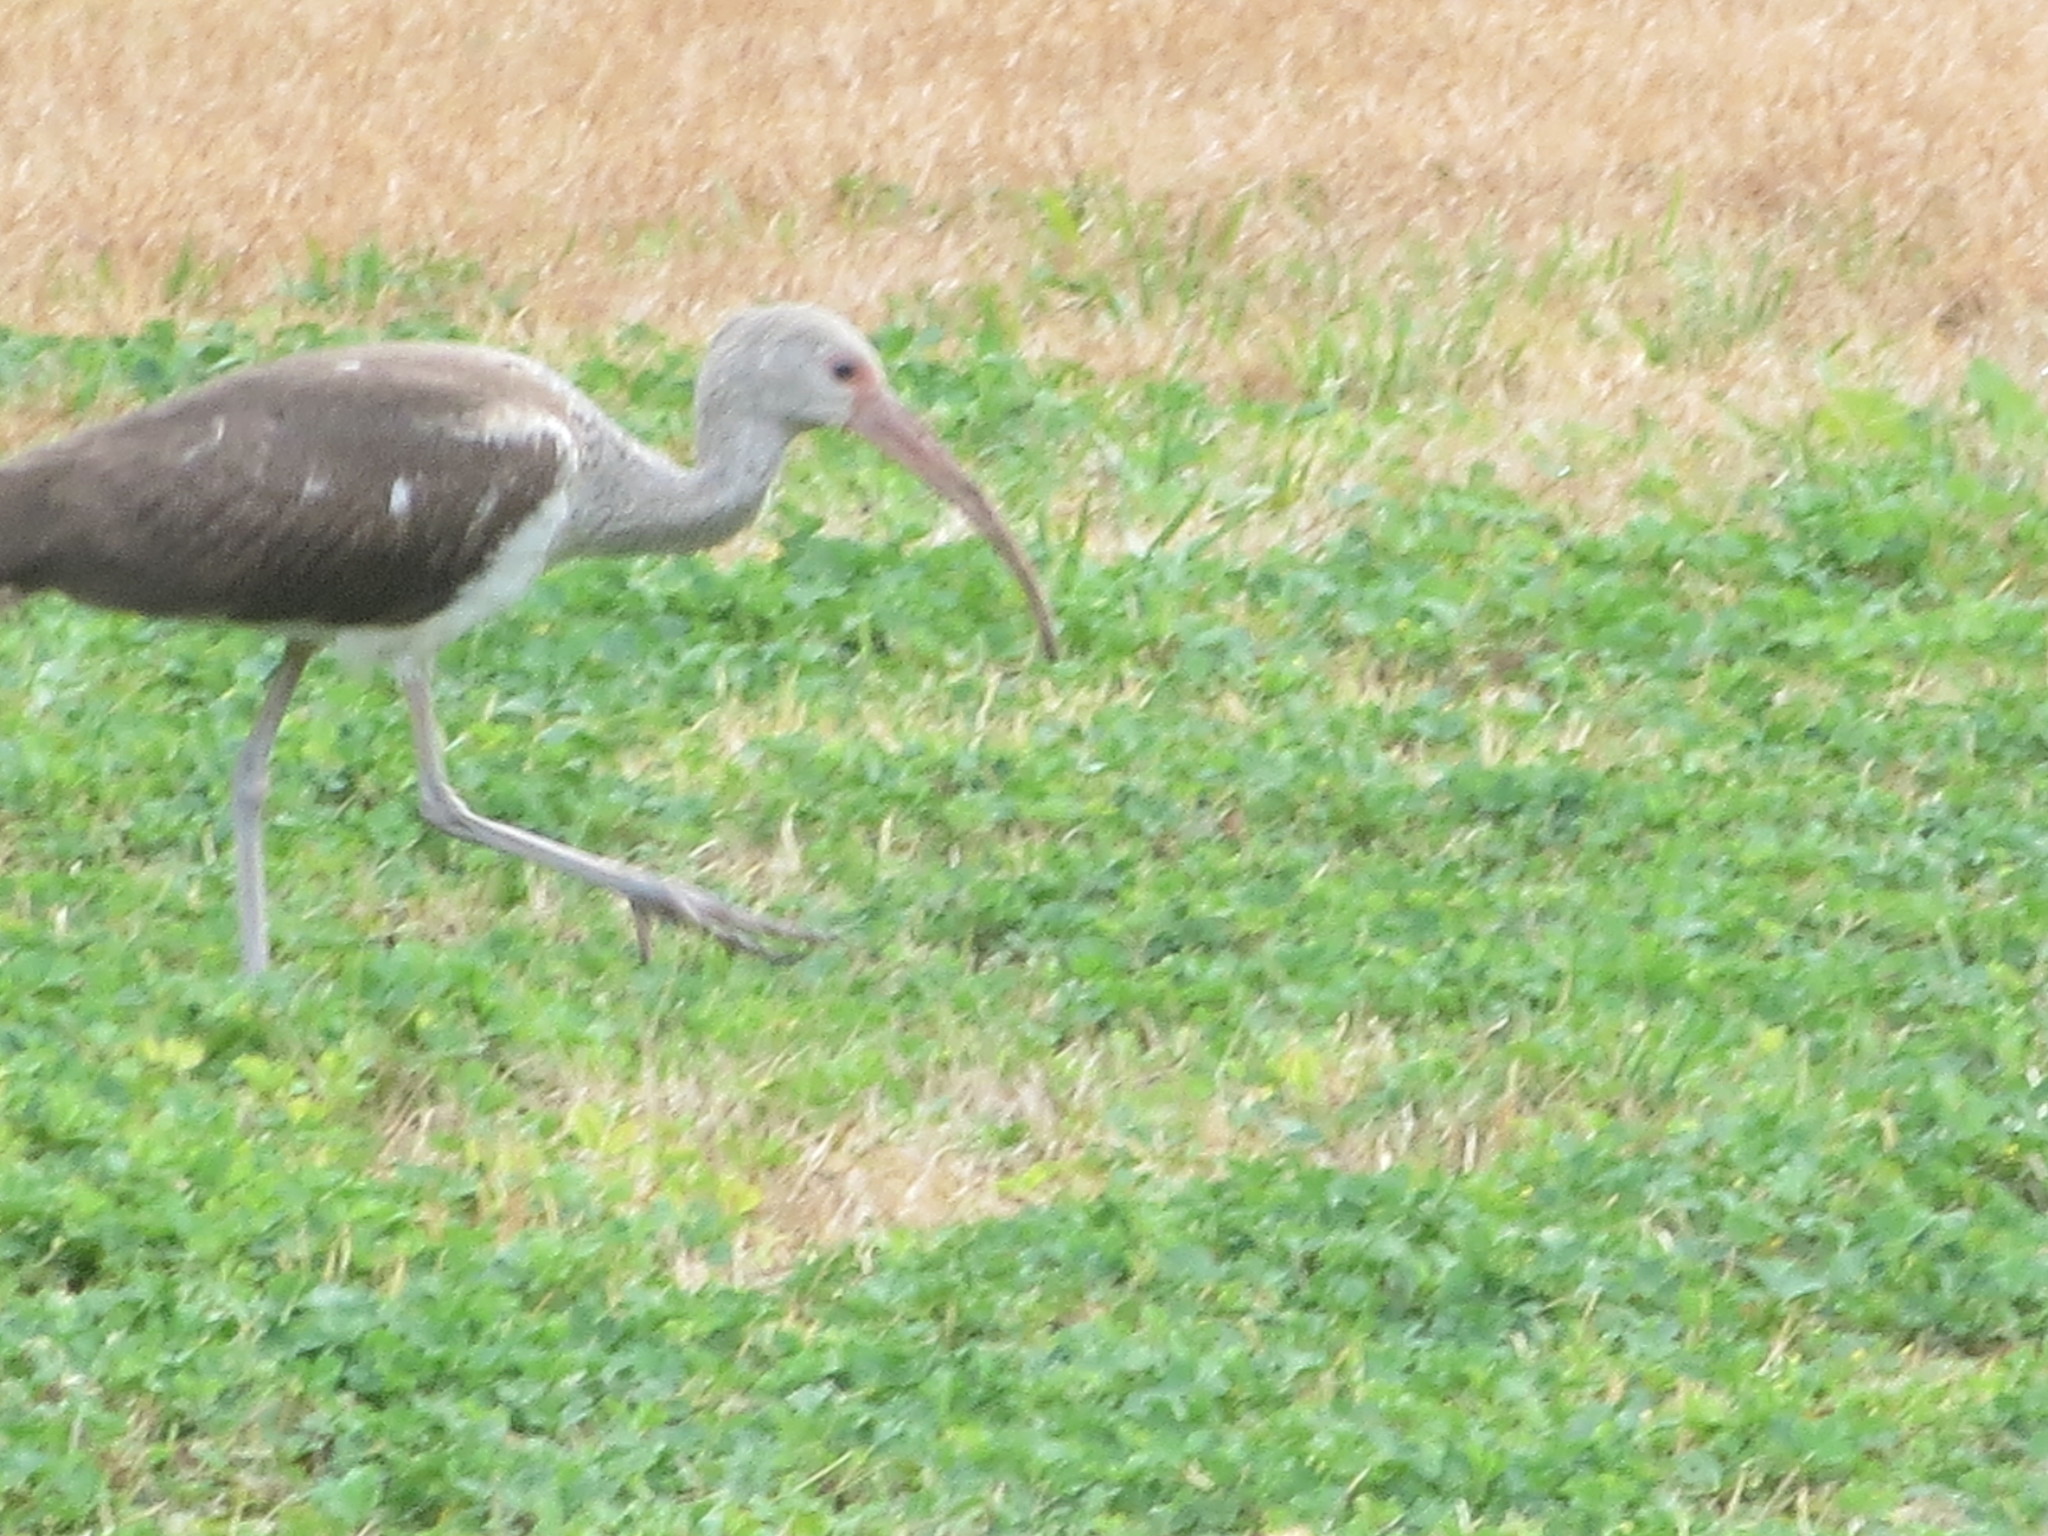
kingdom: Animalia
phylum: Chordata
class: Aves
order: Pelecaniformes
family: Threskiornithidae
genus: Eudocimus
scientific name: Eudocimus albus
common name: White ibis
